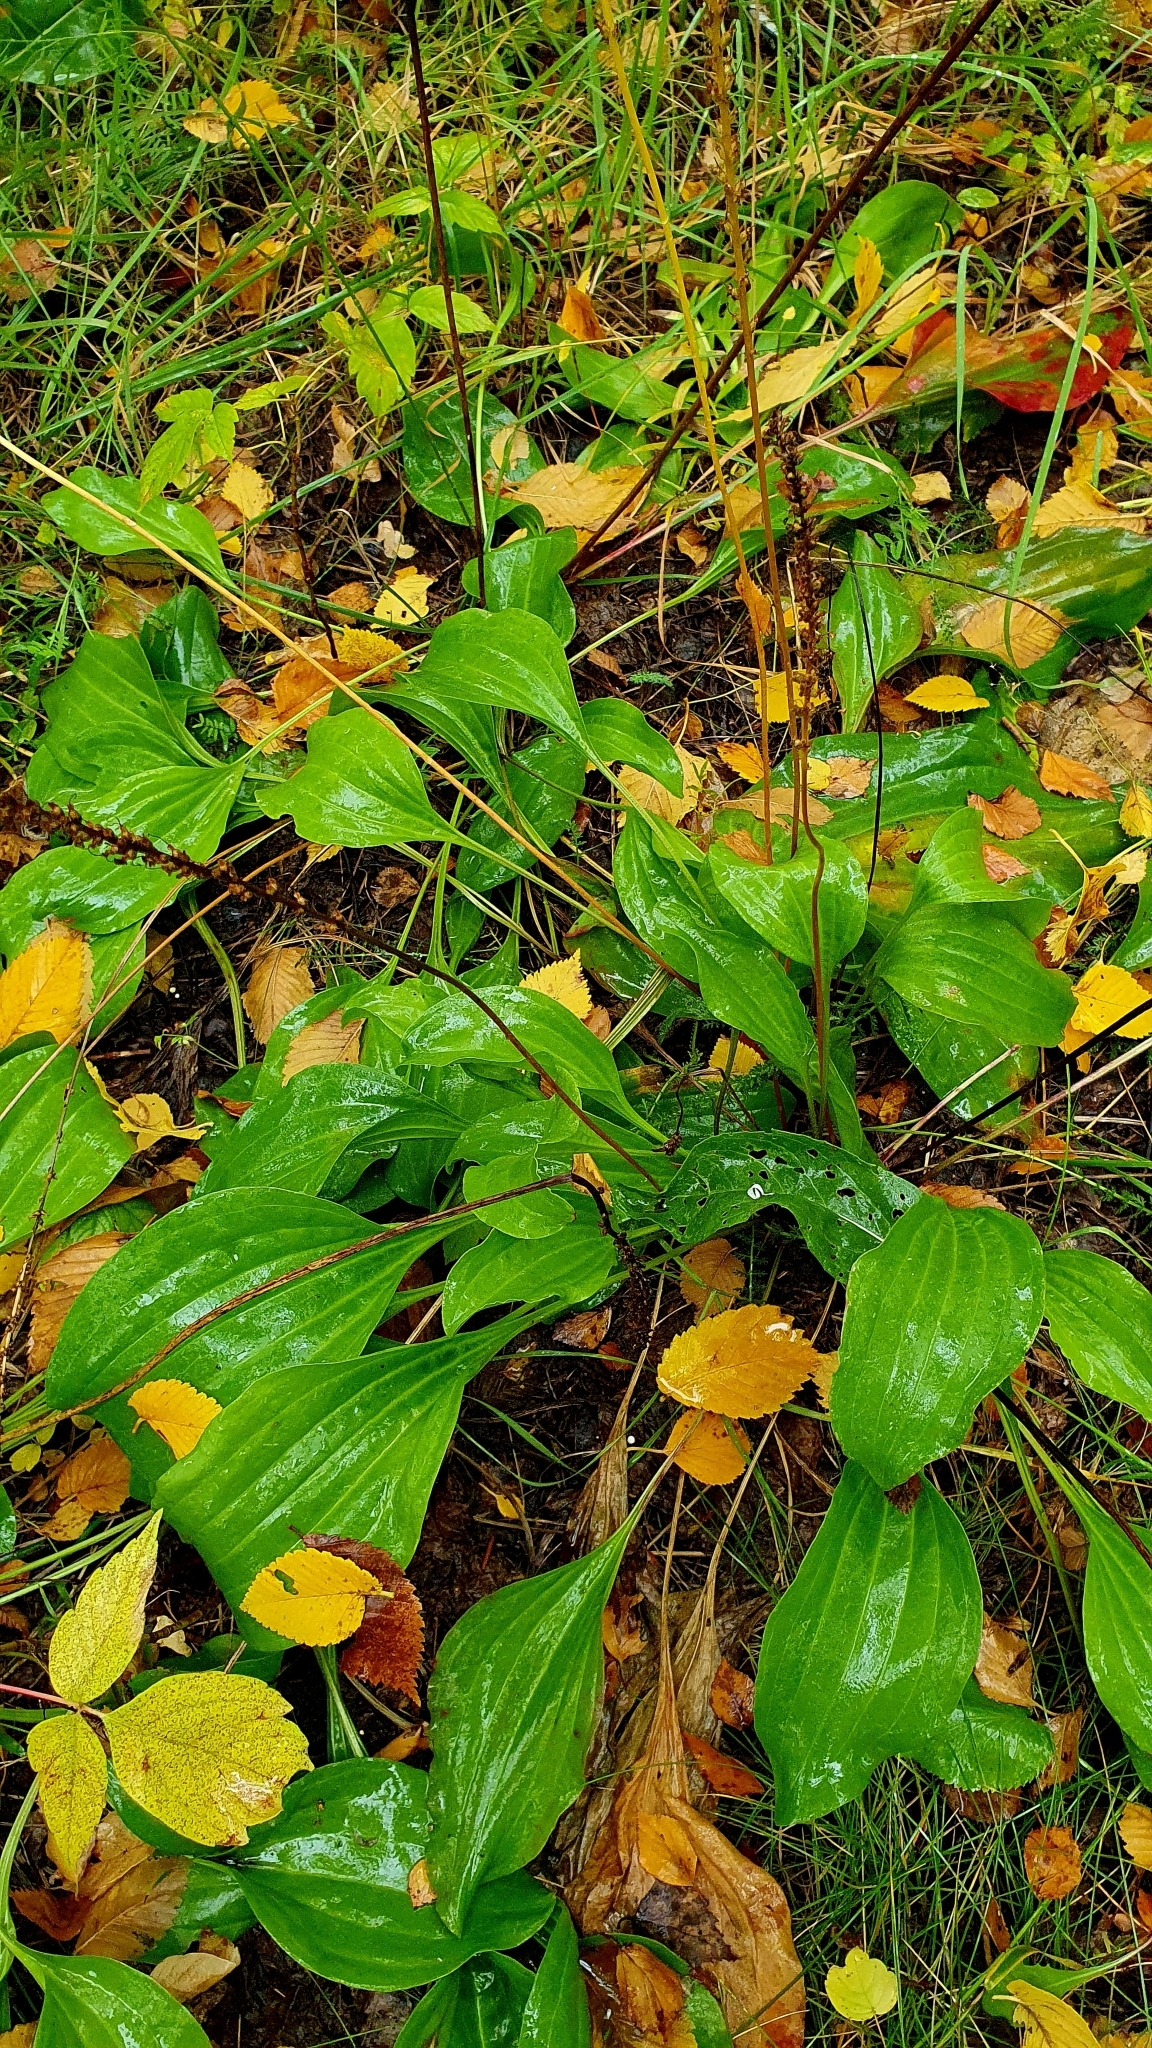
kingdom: Plantae
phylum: Tracheophyta
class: Magnoliopsida
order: Lamiales
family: Plantaginaceae
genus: Plantago
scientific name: Plantago cornuti
